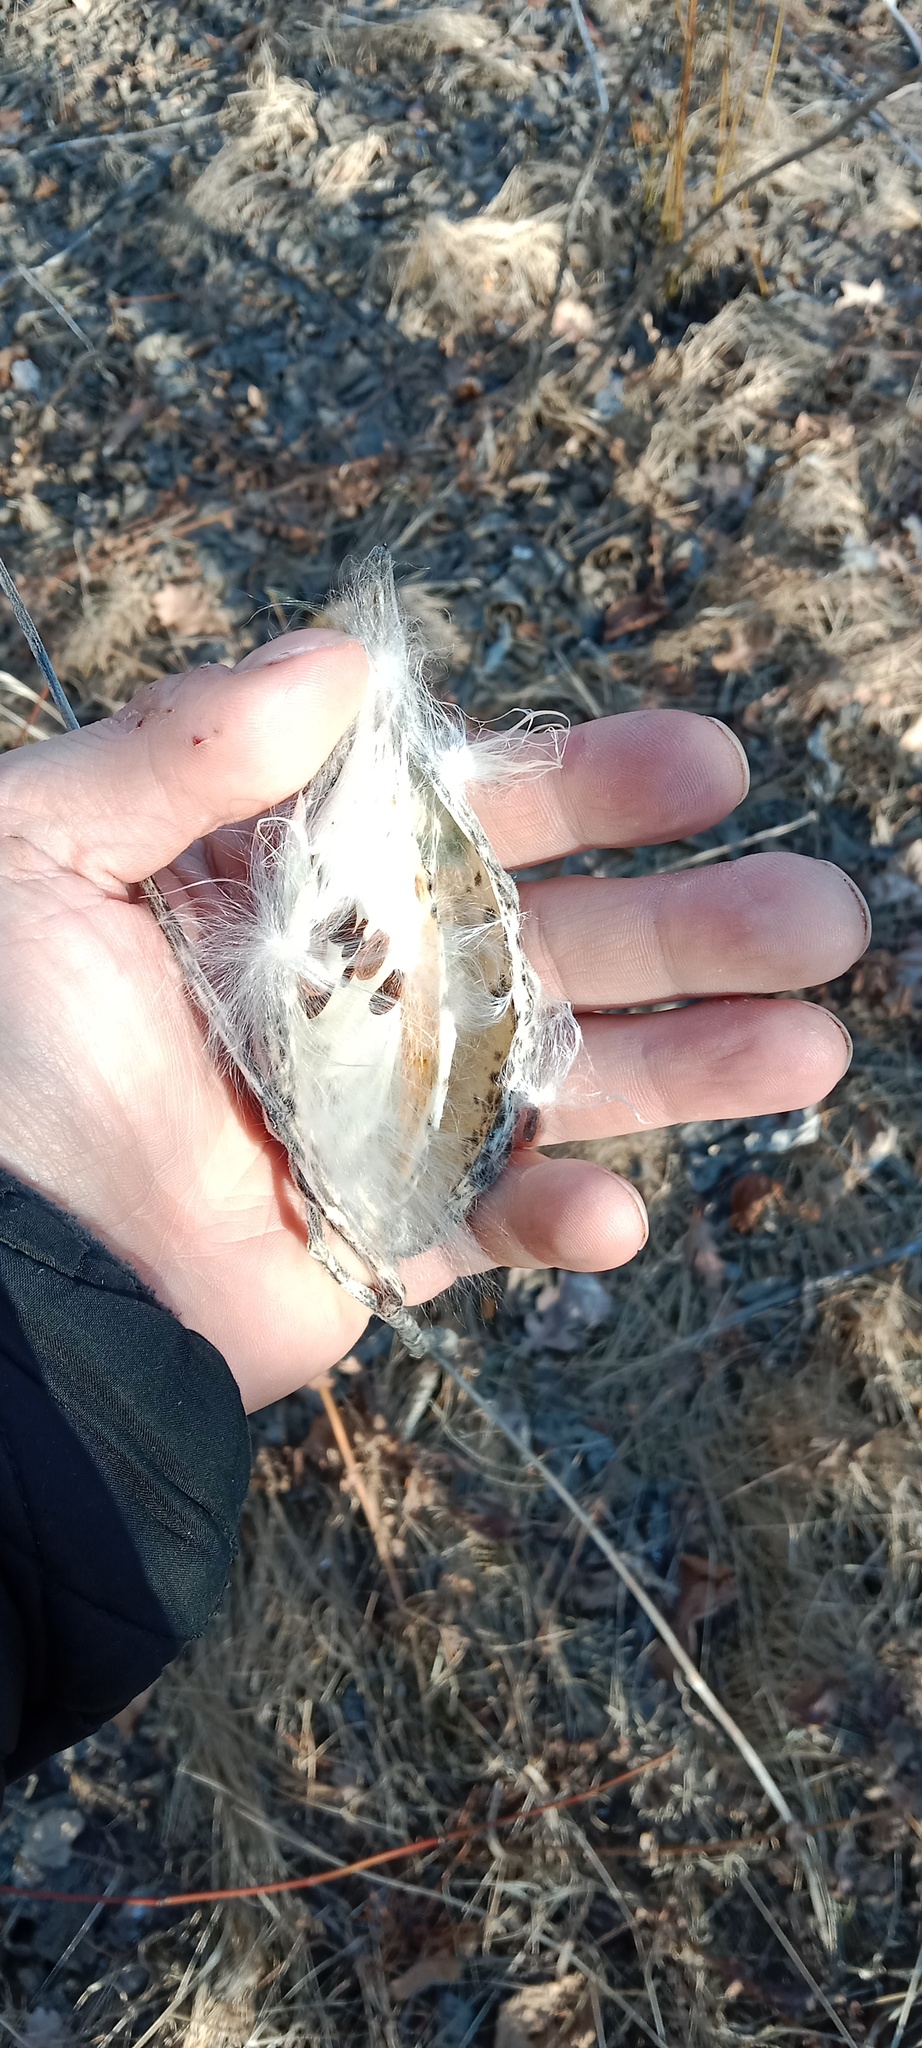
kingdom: Plantae
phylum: Tracheophyta
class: Magnoliopsida
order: Gentianales
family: Apocynaceae
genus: Asclepias
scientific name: Asclepias syriaca
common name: Common milkweed
